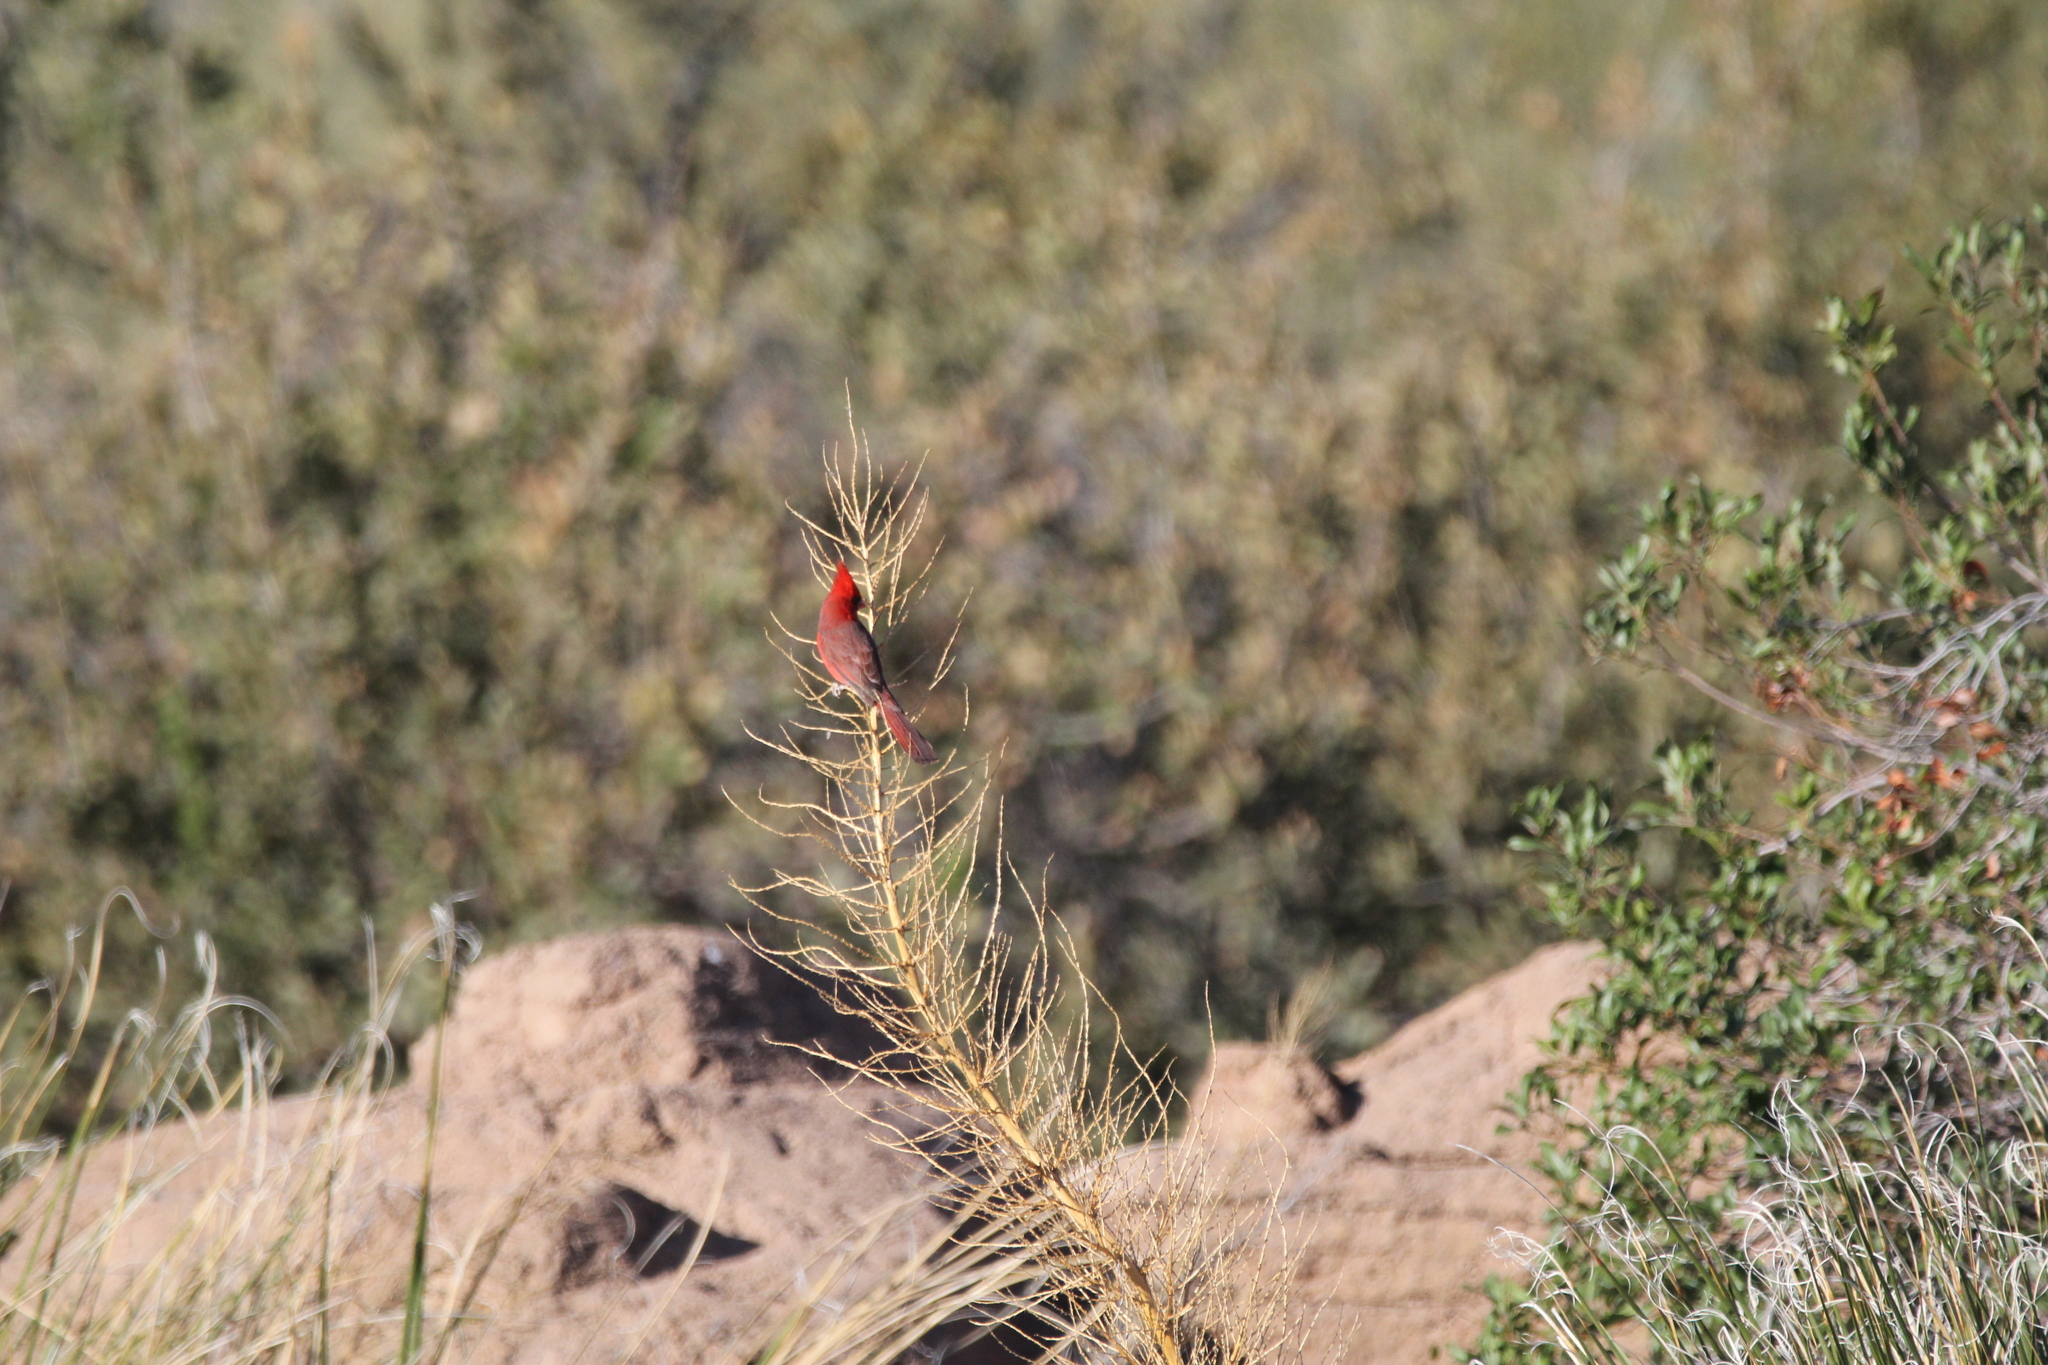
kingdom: Animalia
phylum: Chordata
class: Aves
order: Passeriformes
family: Cardinalidae
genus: Cardinalis
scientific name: Cardinalis cardinalis
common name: Northern cardinal
